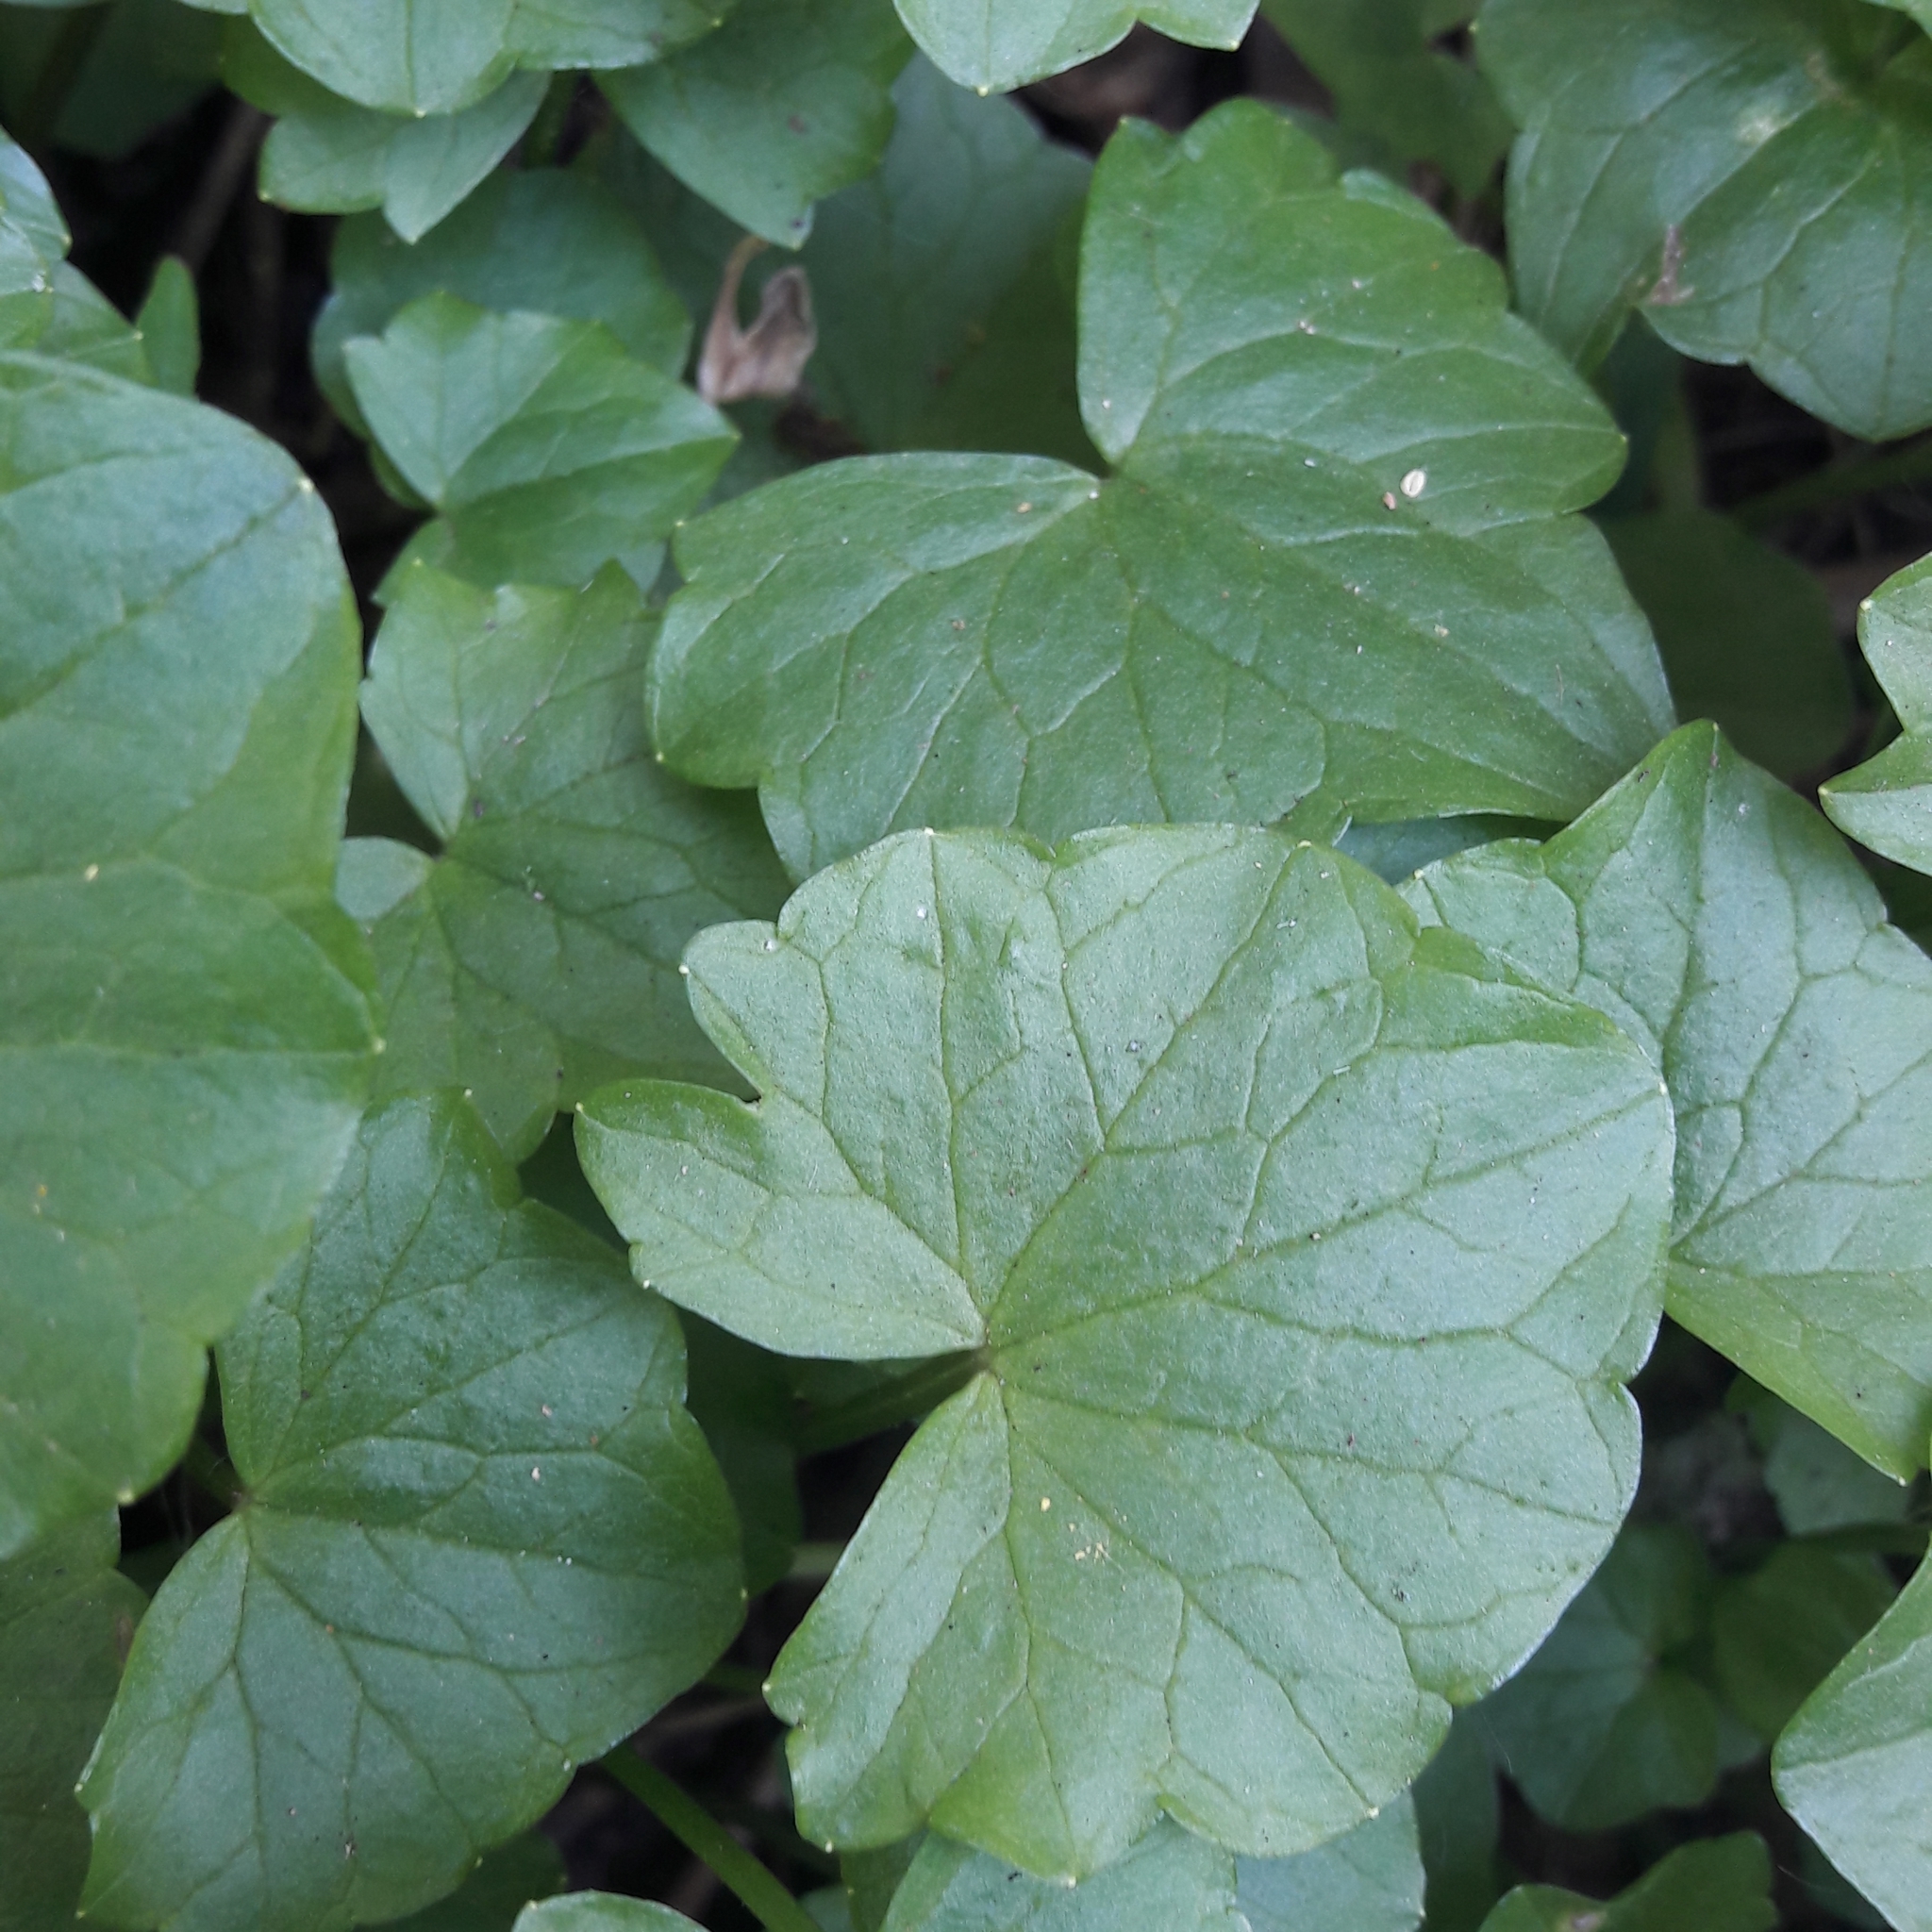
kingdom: Plantae
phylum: Tracheophyta
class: Magnoliopsida
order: Ranunculales
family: Ranunculaceae
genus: Ficaria
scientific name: Ficaria verna
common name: Lesser celandine
